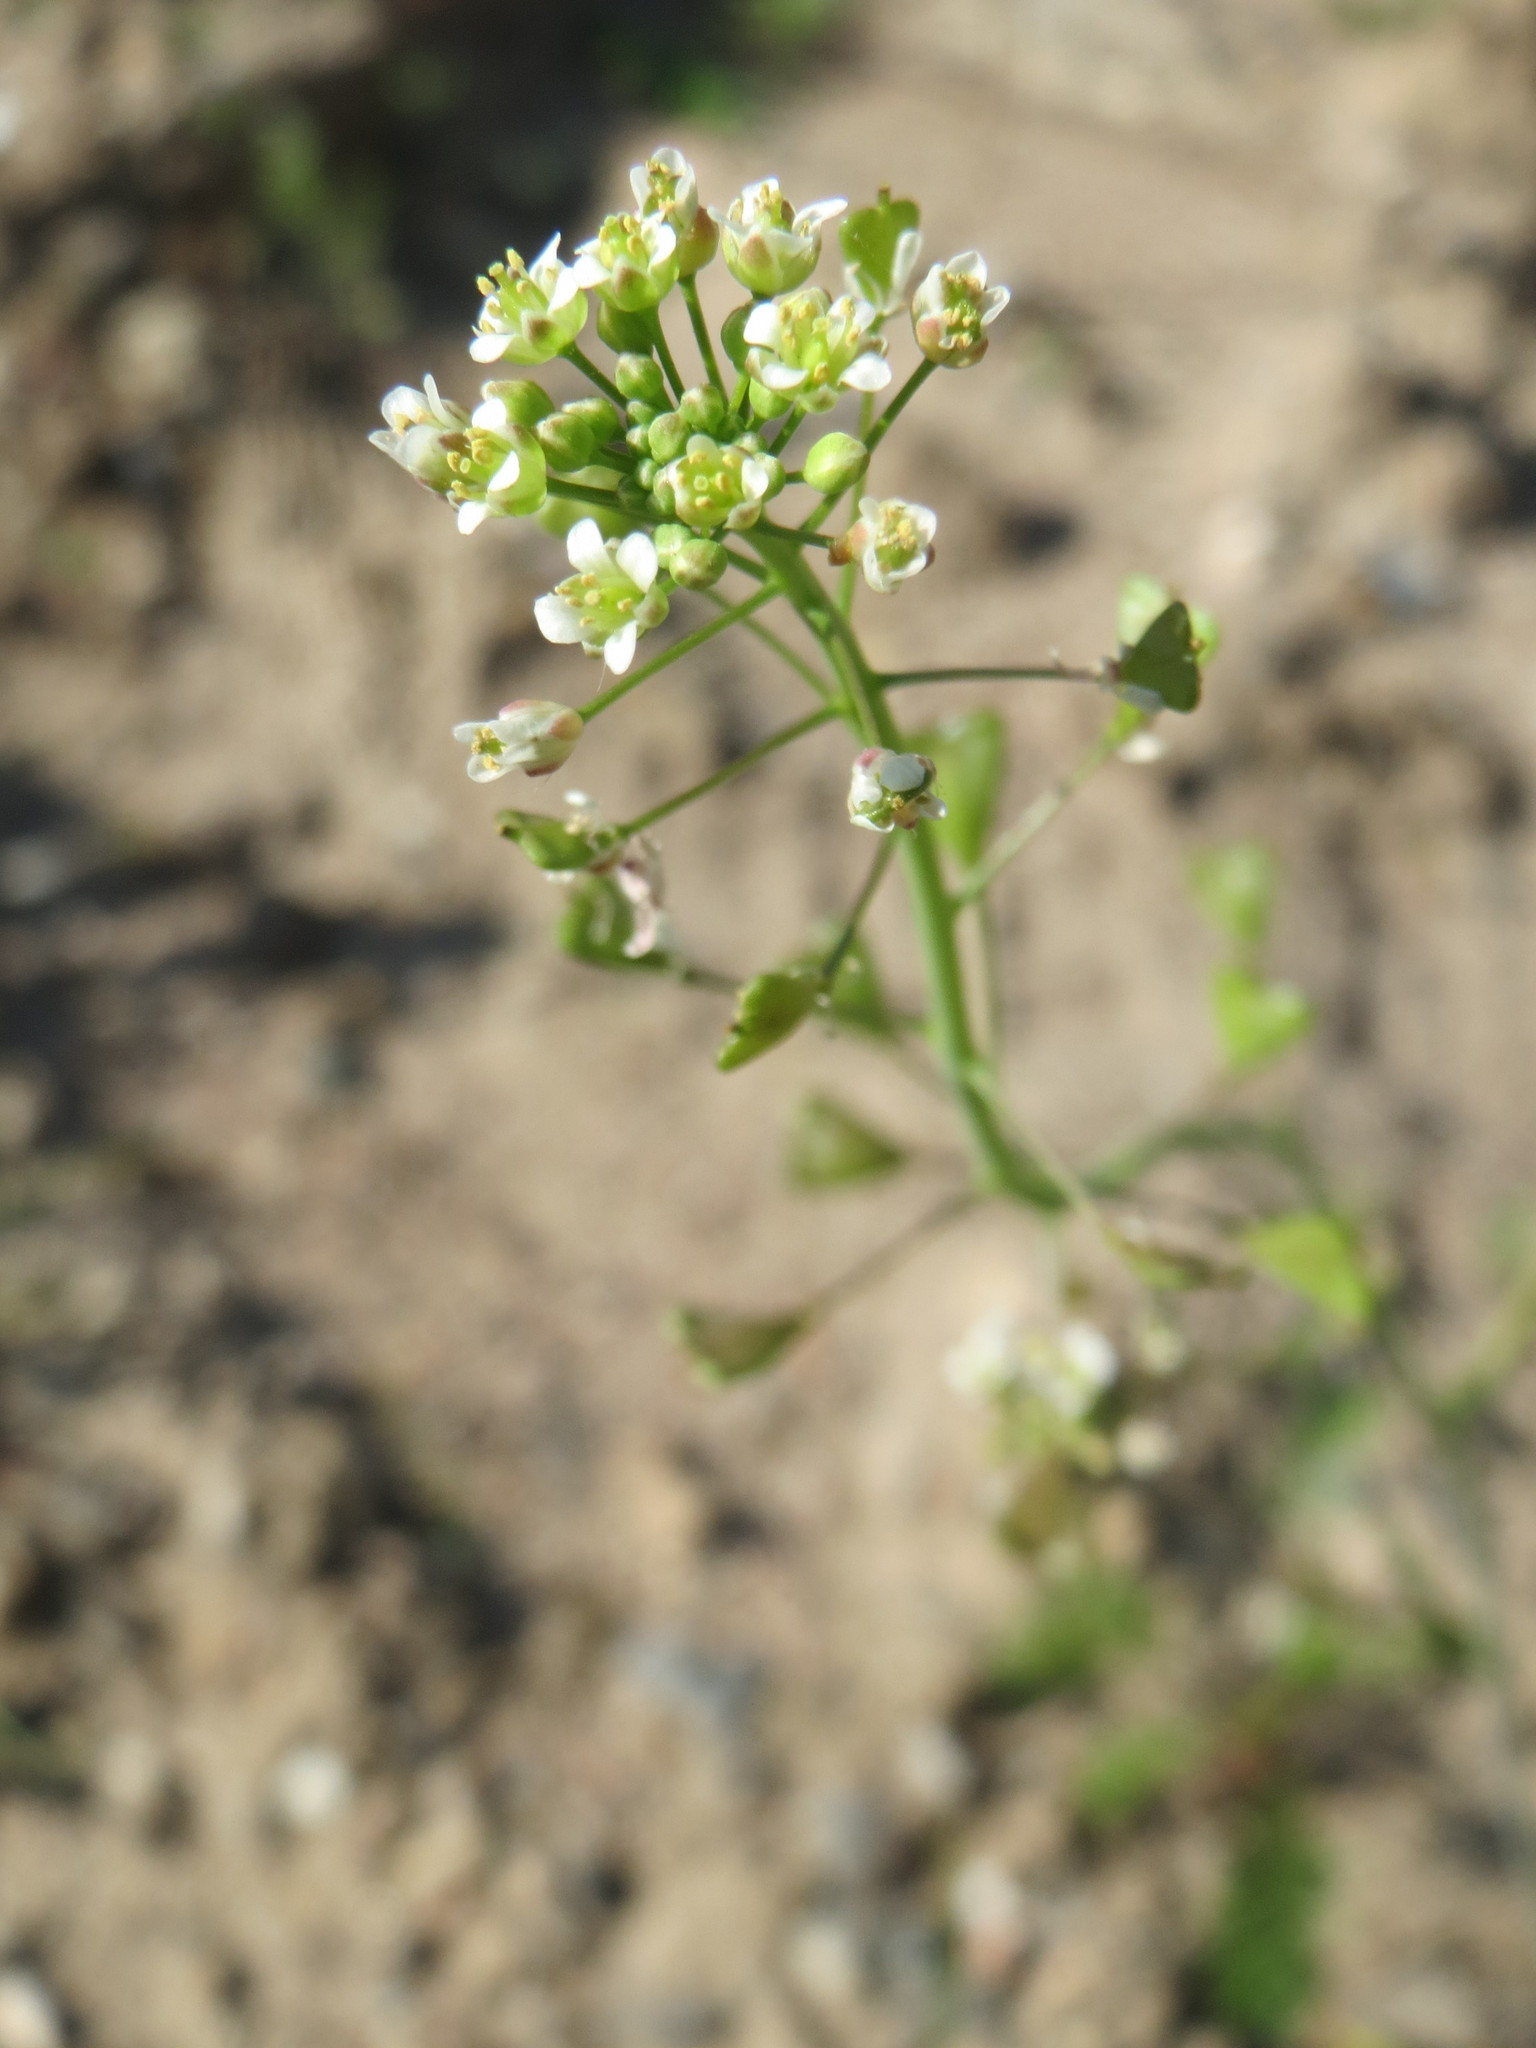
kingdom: Plantae
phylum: Tracheophyta
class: Magnoliopsida
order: Brassicales
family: Brassicaceae
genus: Capsella
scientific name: Capsella bursa-pastoris
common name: Shepherd's purse
